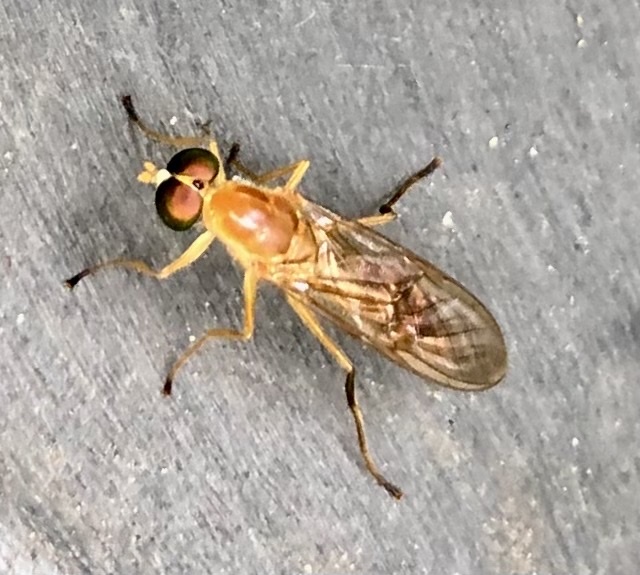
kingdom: Animalia
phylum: Arthropoda
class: Insecta
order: Diptera
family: Stratiomyidae
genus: Ptecticus
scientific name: Ptecticus trivittatus
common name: Compost fly
